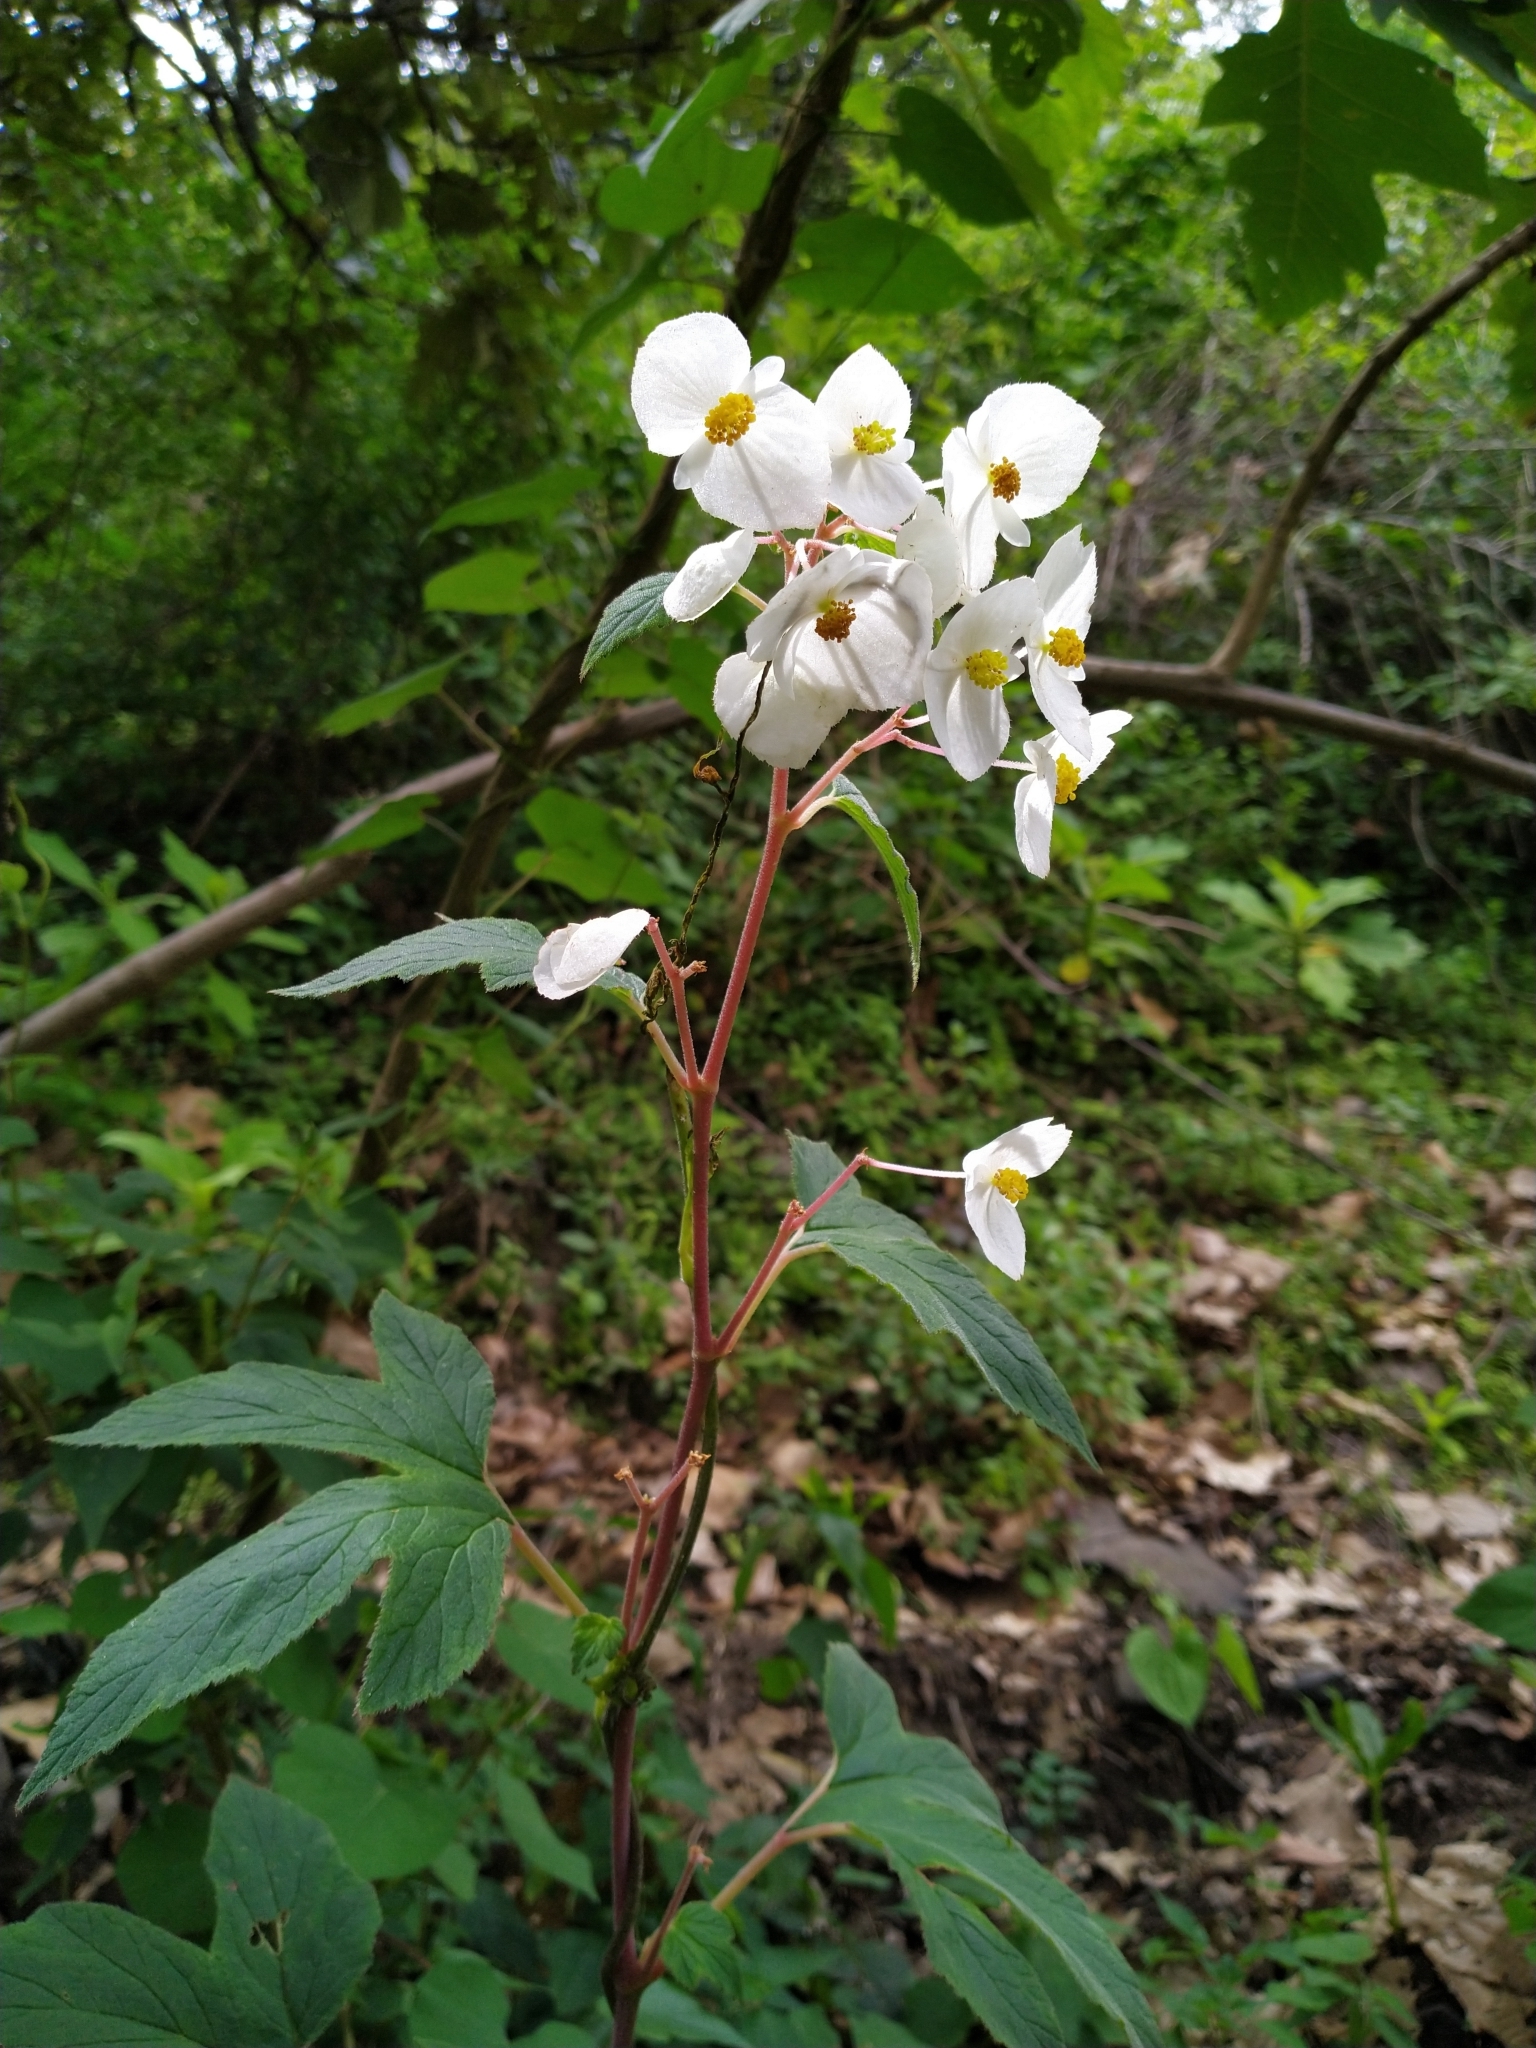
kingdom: Plantae
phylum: Tracheophyta
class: Magnoliopsida
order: Cucurbitales
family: Begoniaceae
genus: Begonia
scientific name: Begonia biserrata
